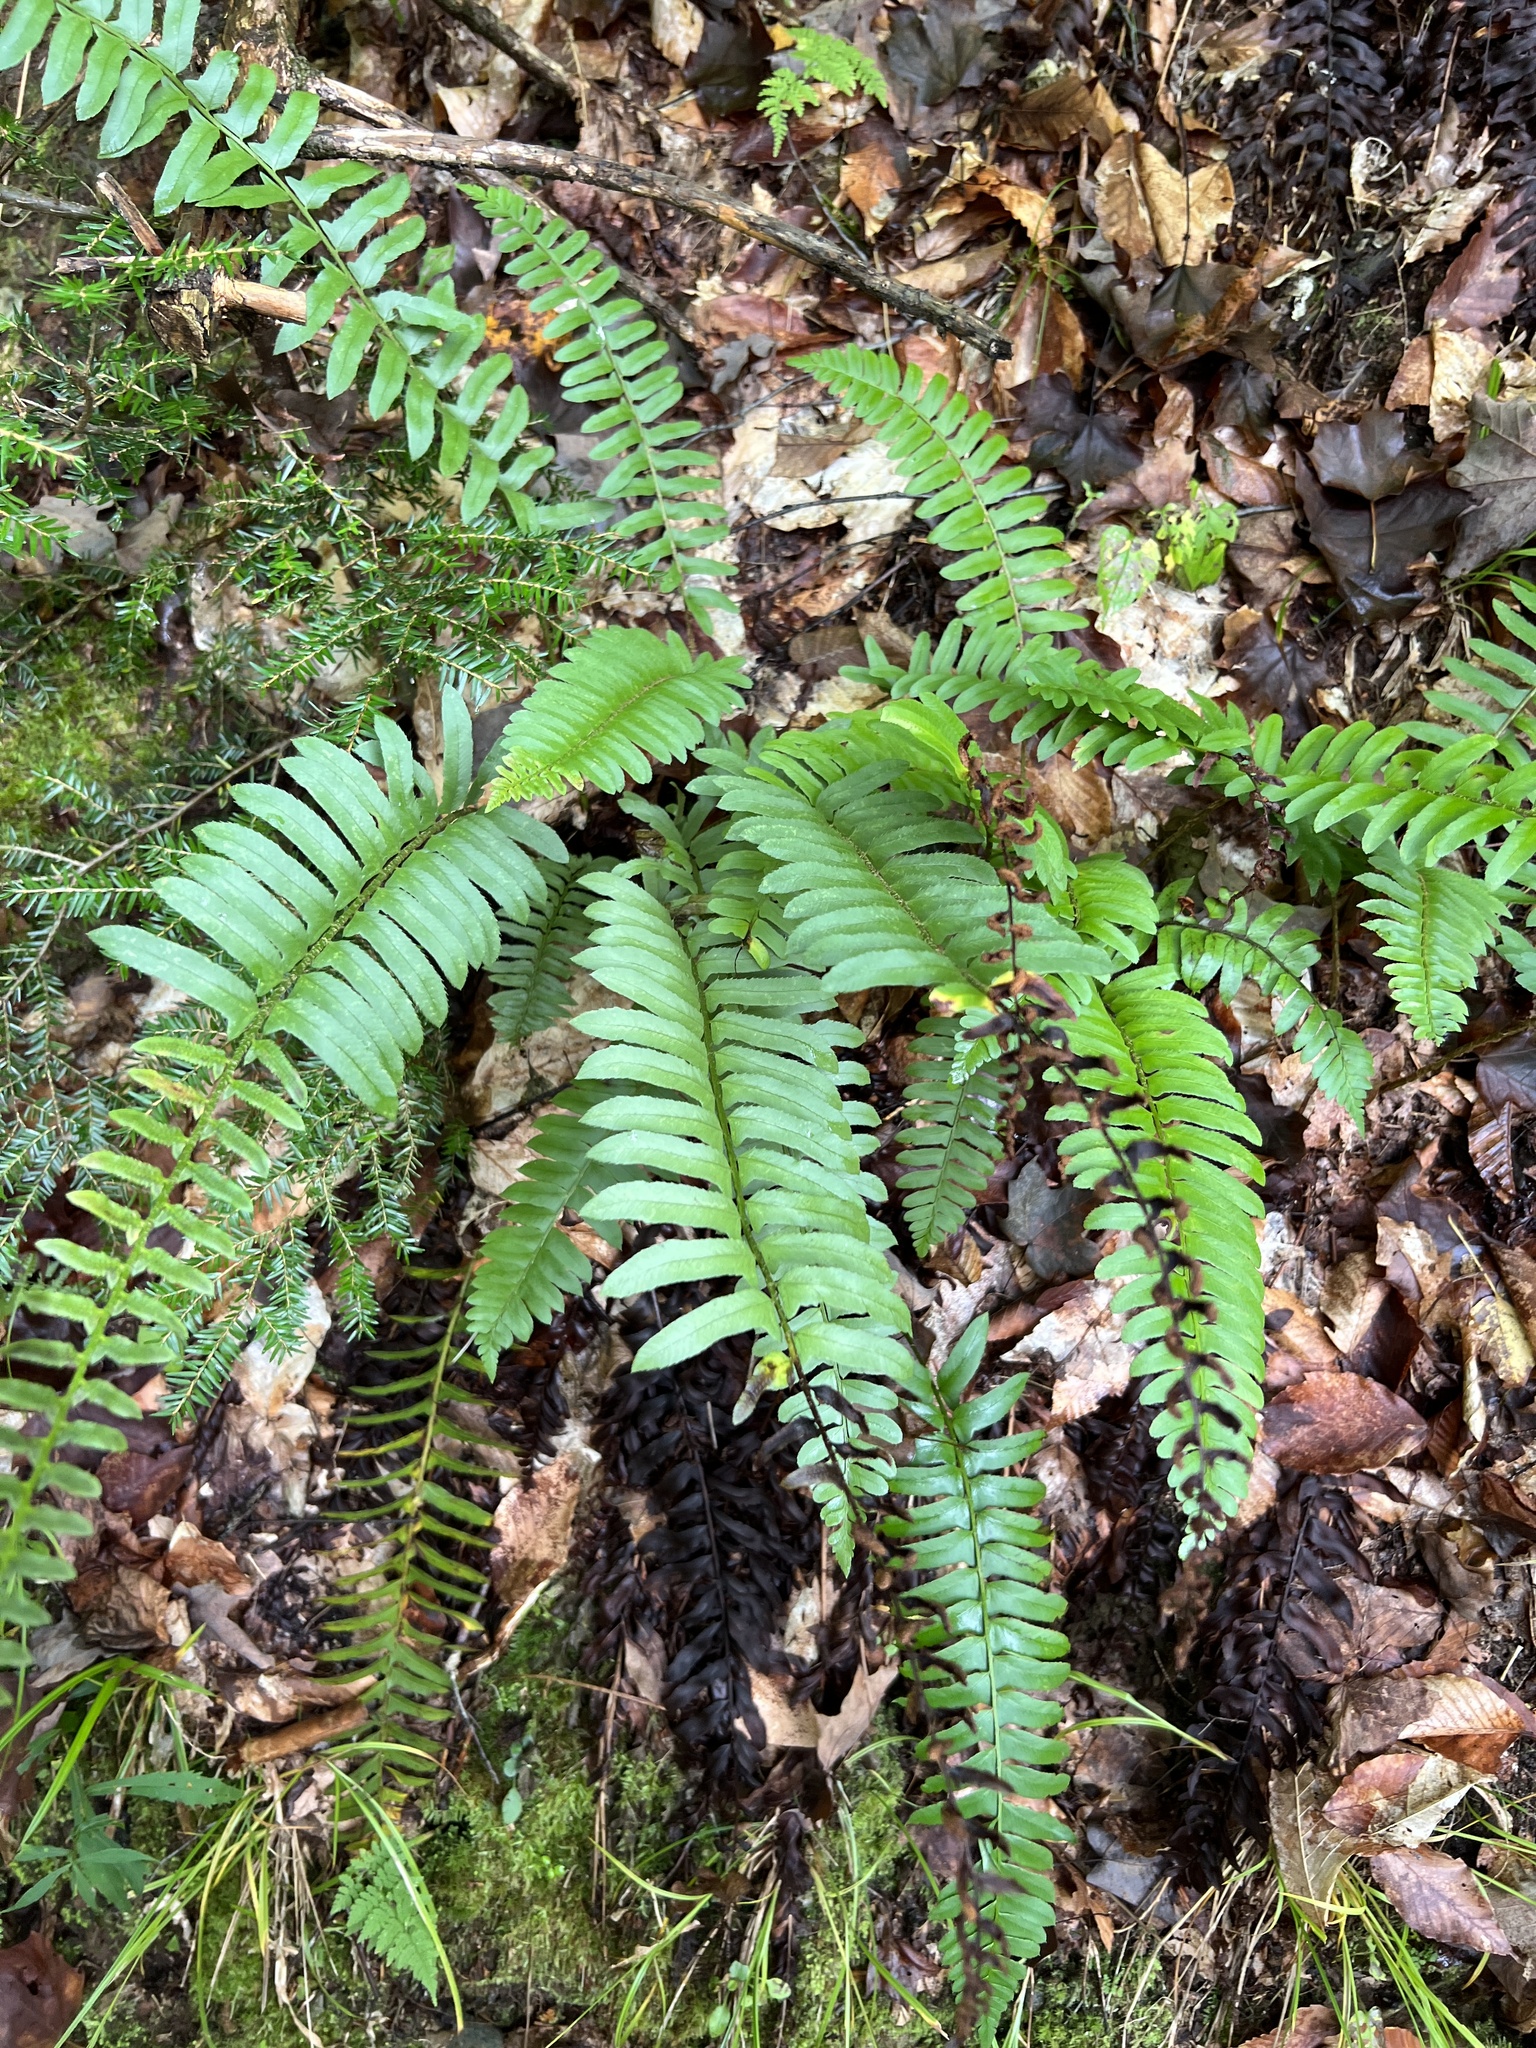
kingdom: Plantae
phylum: Tracheophyta
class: Polypodiopsida
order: Polypodiales
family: Dryopteridaceae
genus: Polystichum
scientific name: Polystichum acrostichoides
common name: Christmas fern
